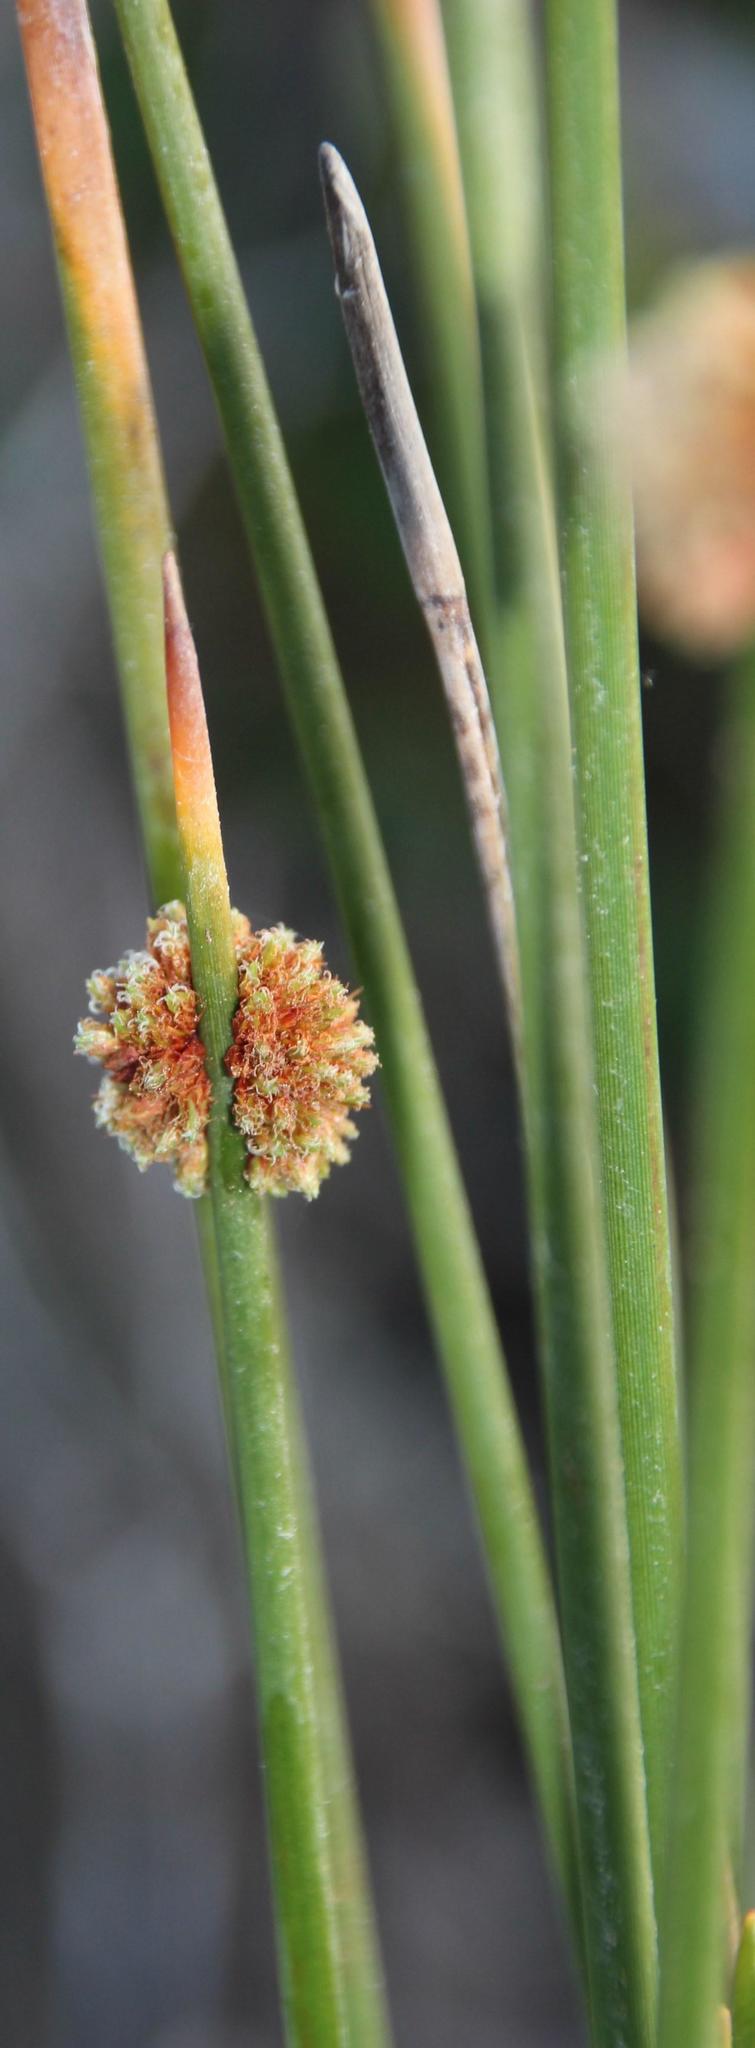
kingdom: Plantae
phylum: Tracheophyta
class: Liliopsida
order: Poales
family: Cyperaceae
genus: Ficinia
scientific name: Ficinia nodosa
